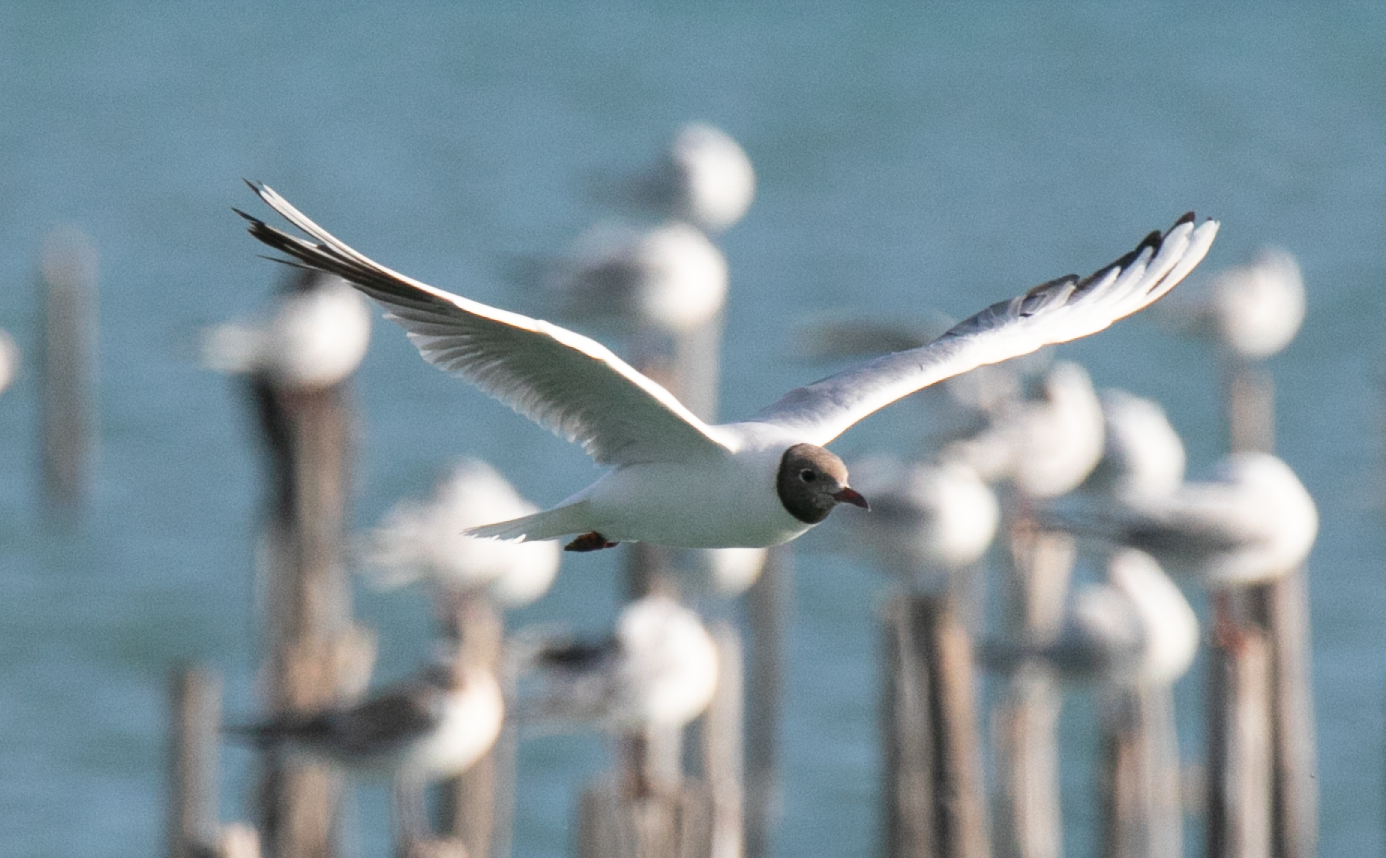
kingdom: Animalia
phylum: Chordata
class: Aves
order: Charadriiformes
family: Laridae
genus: Chroicocephalus
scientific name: Chroicocephalus ridibundus
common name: Black-headed gull
